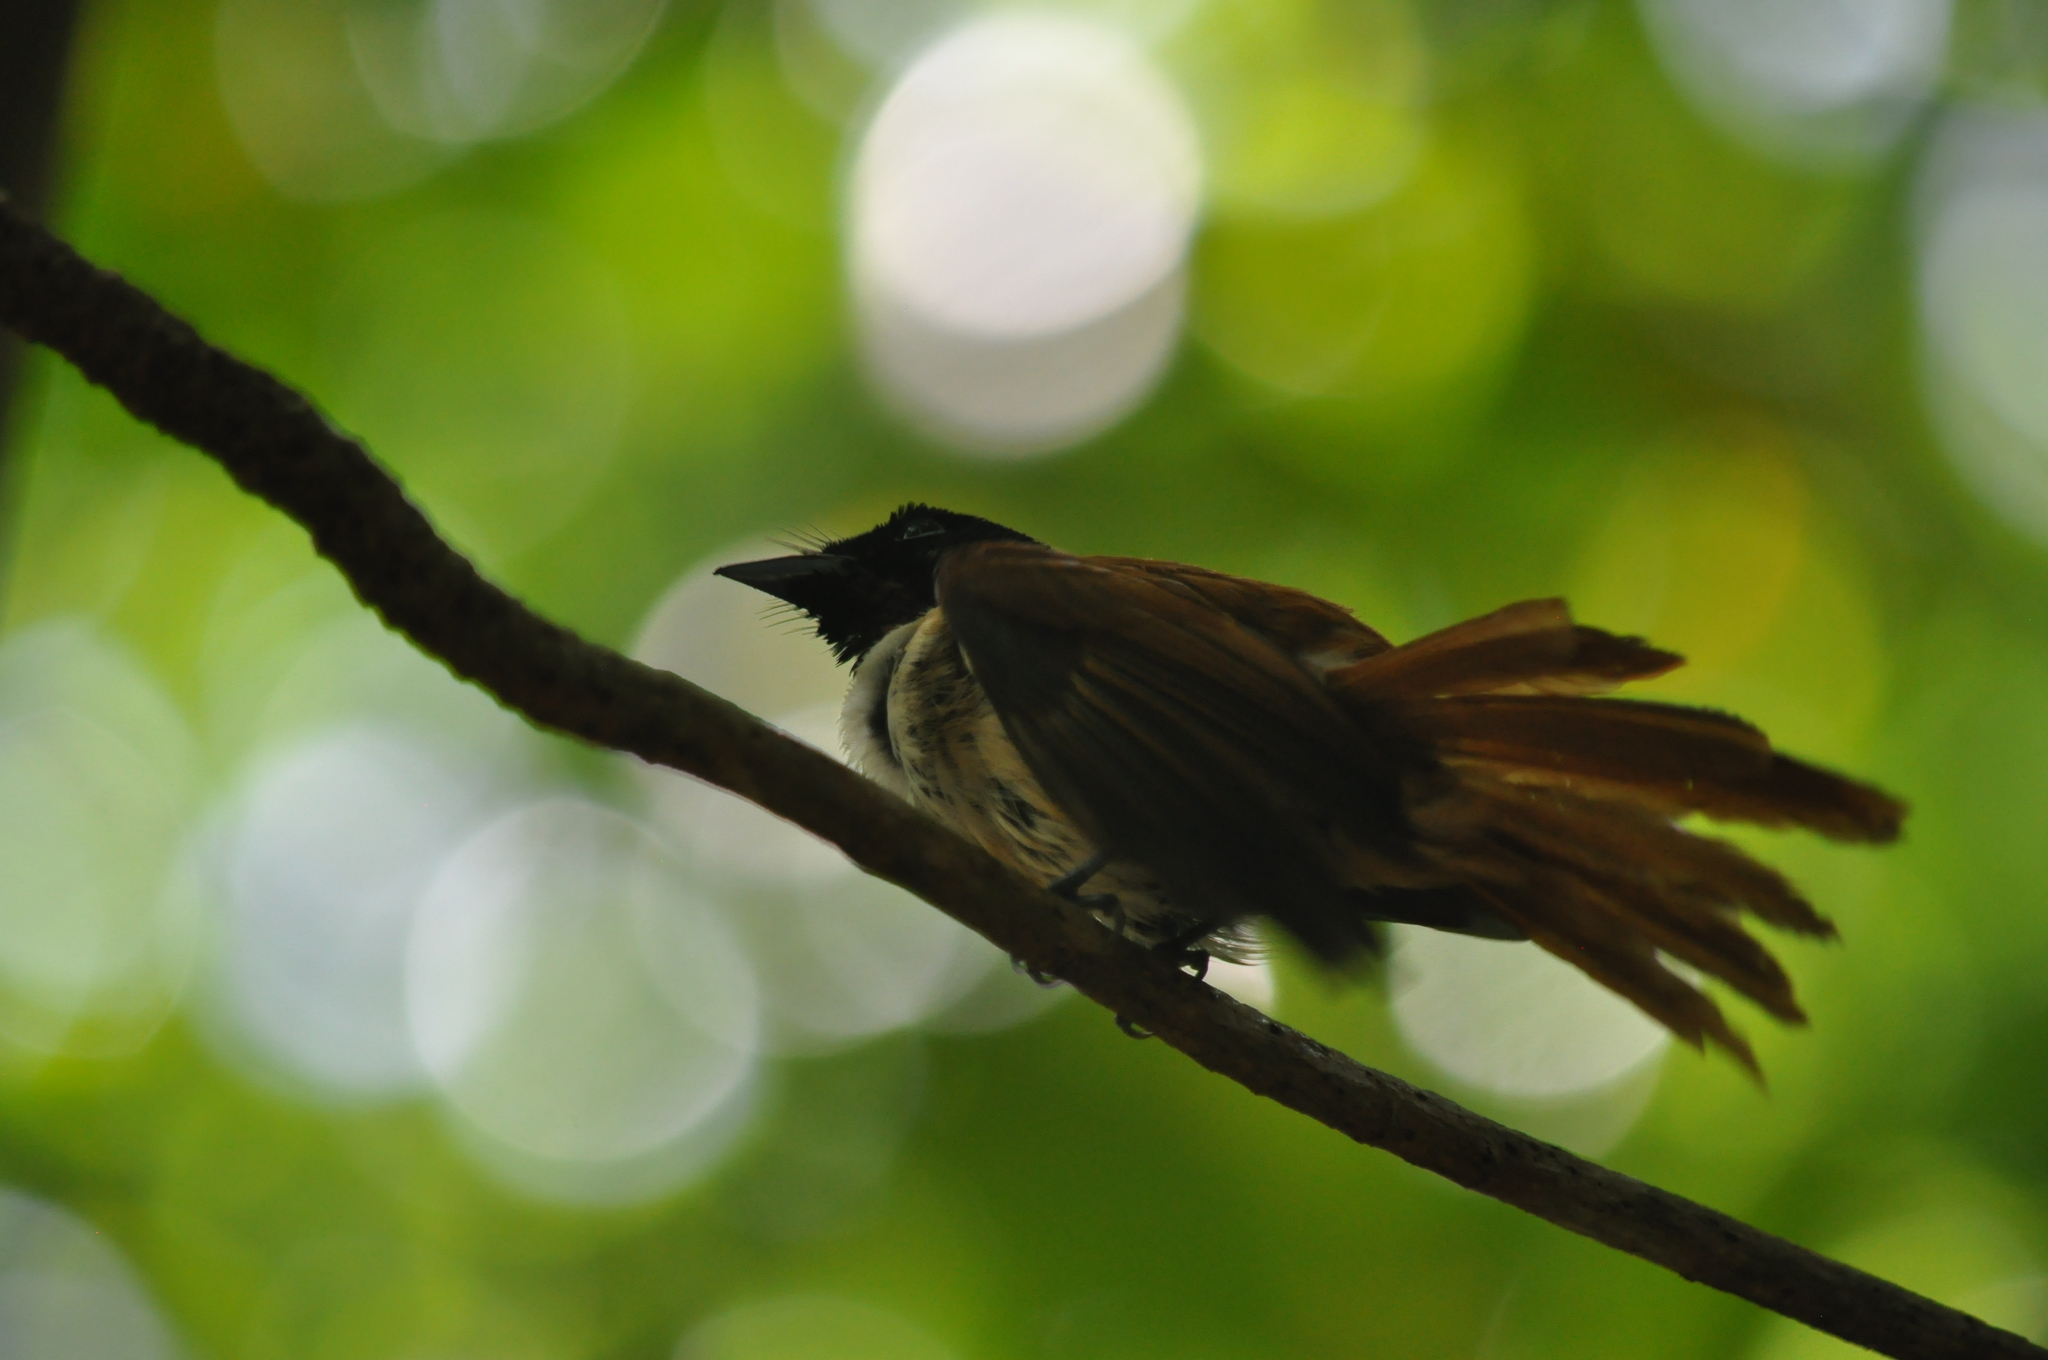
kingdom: Animalia
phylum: Chordata
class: Aves
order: Passeriformes
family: Monarchidae
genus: Terpsiphone
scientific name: Terpsiphone corvina
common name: Seychelles paradise flycatcher
